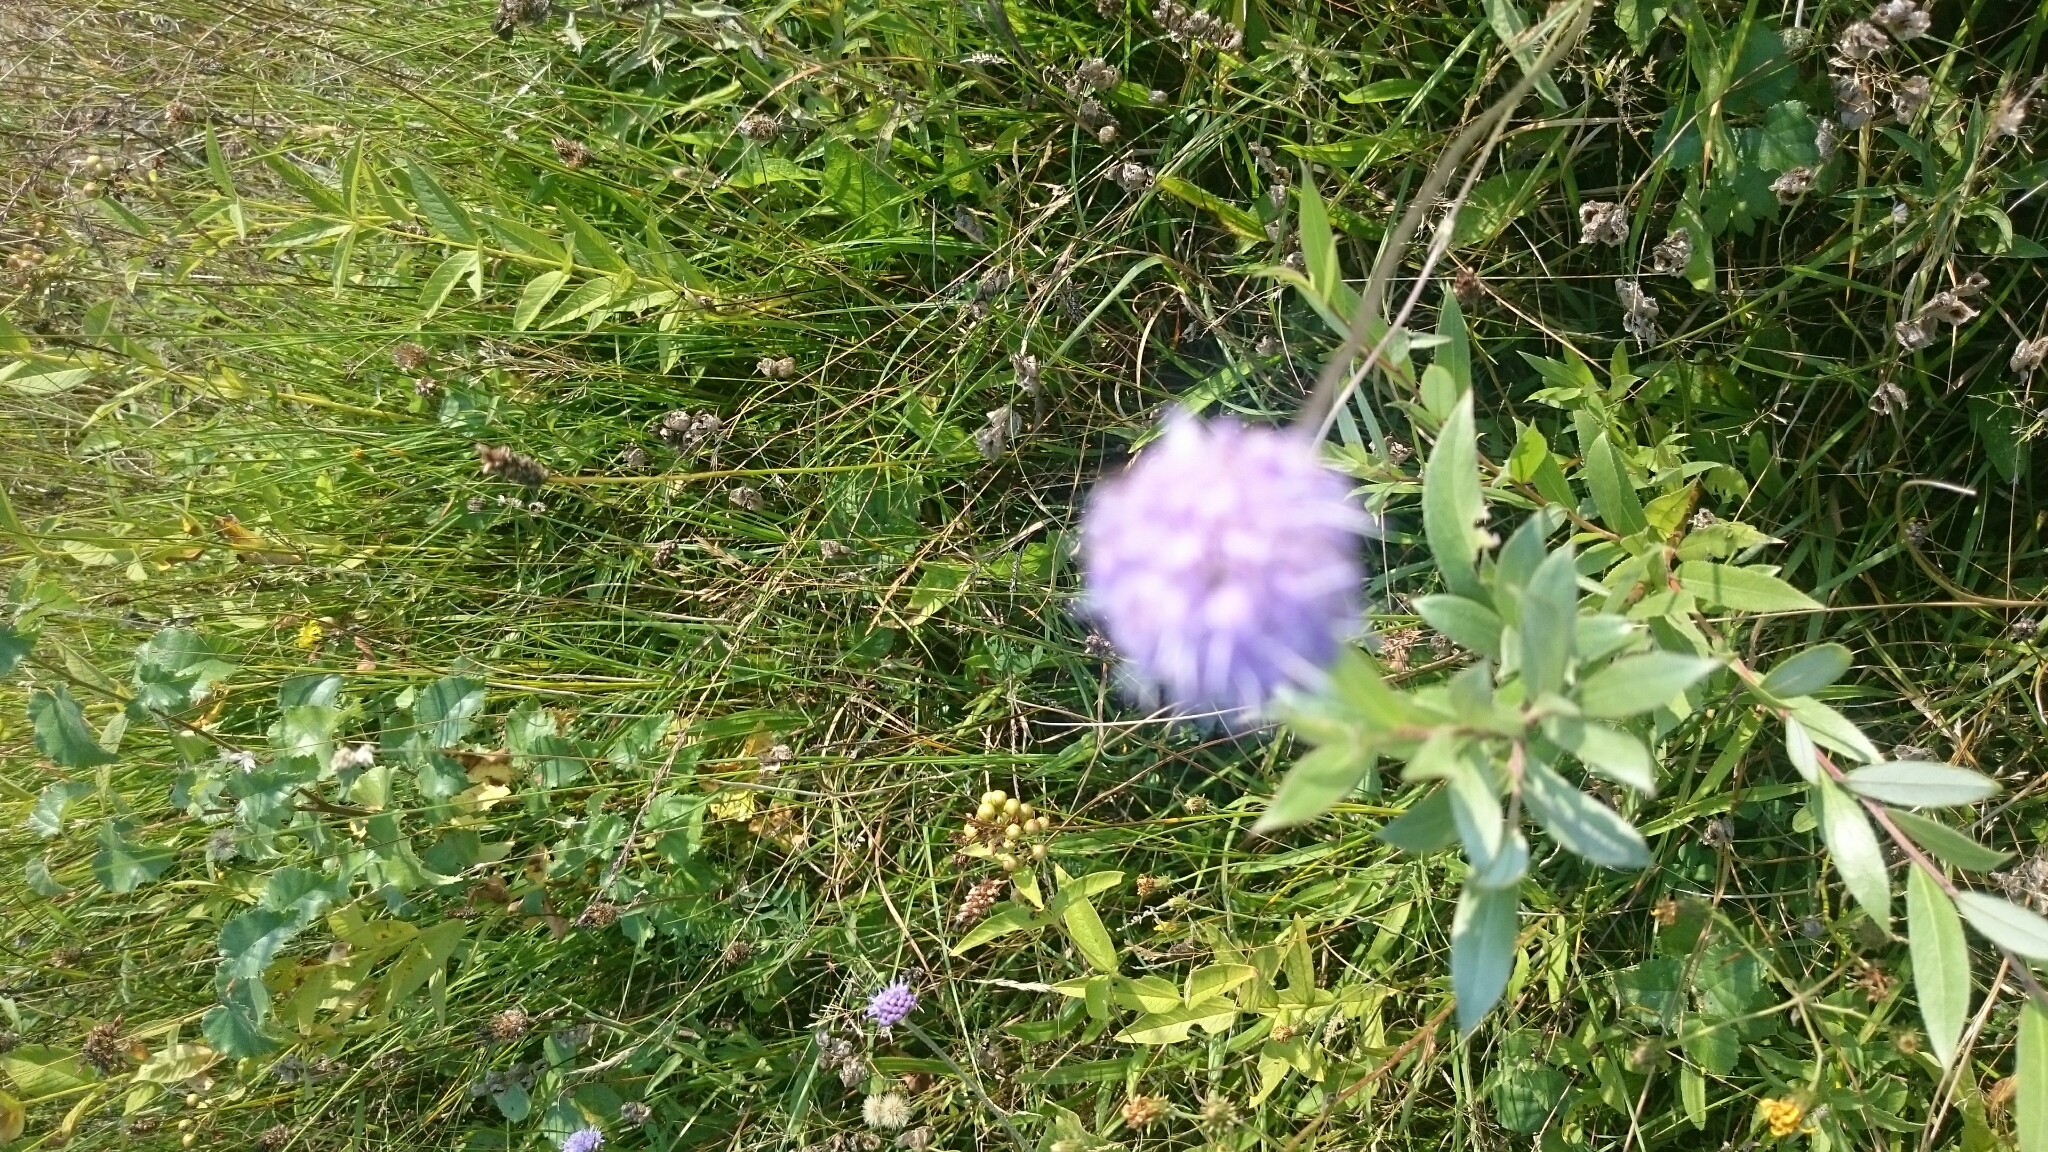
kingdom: Plantae
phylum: Tracheophyta
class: Magnoliopsida
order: Dipsacales
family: Caprifoliaceae
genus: Succisa
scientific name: Succisa pratensis
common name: Devil's-bit
